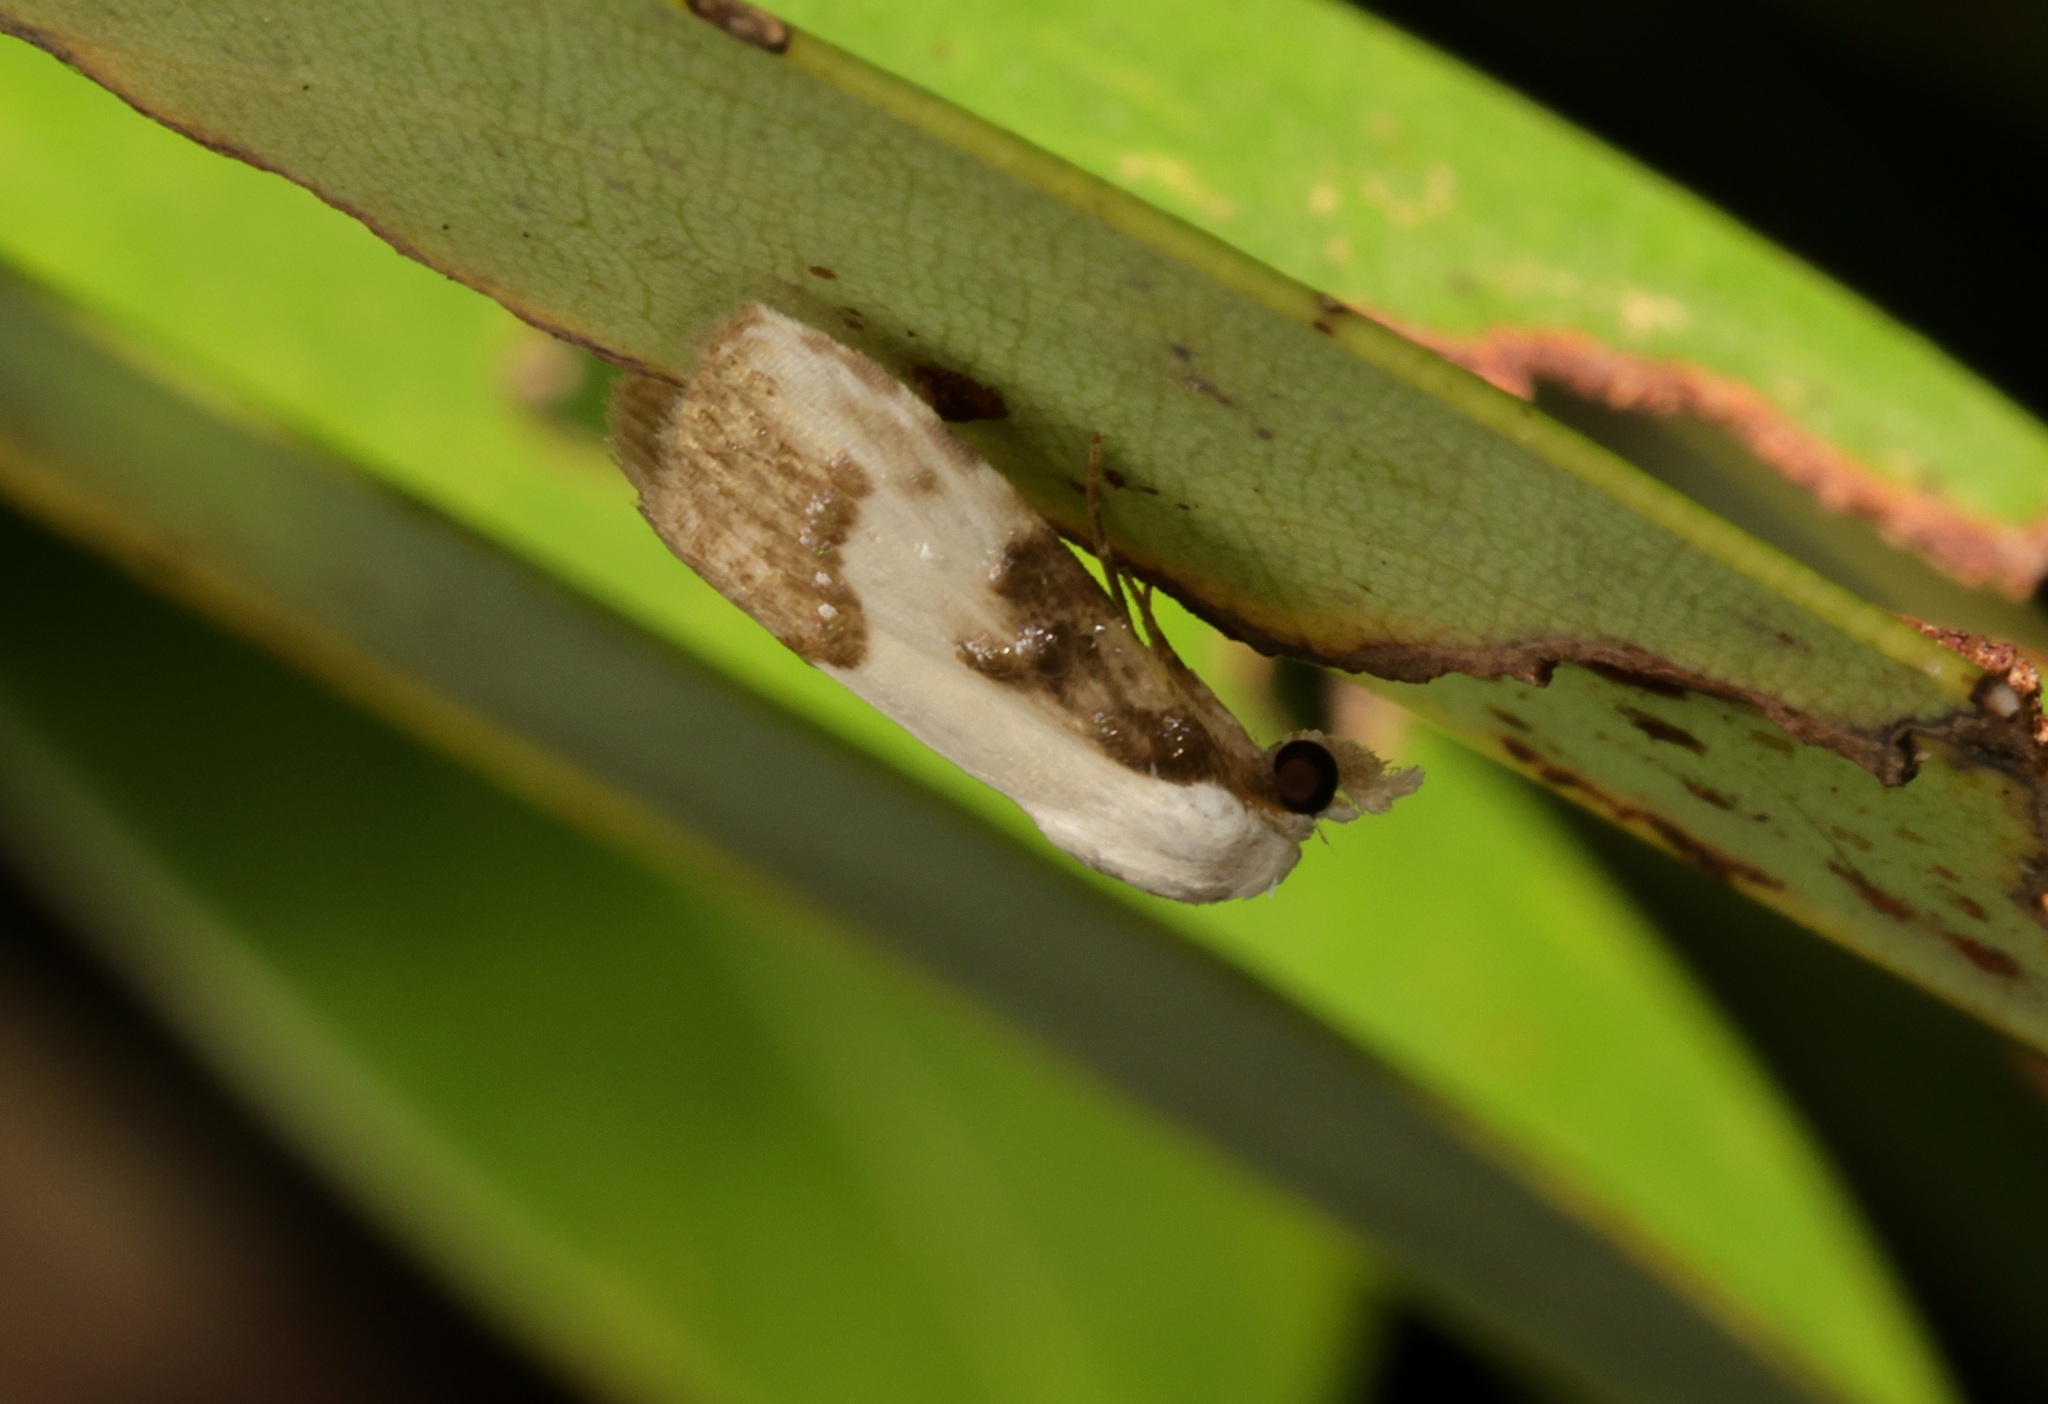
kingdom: Animalia
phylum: Arthropoda
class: Insecta
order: Lepidoptera
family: Nolidae
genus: Aeneanola
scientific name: Aeneanola acontioides
